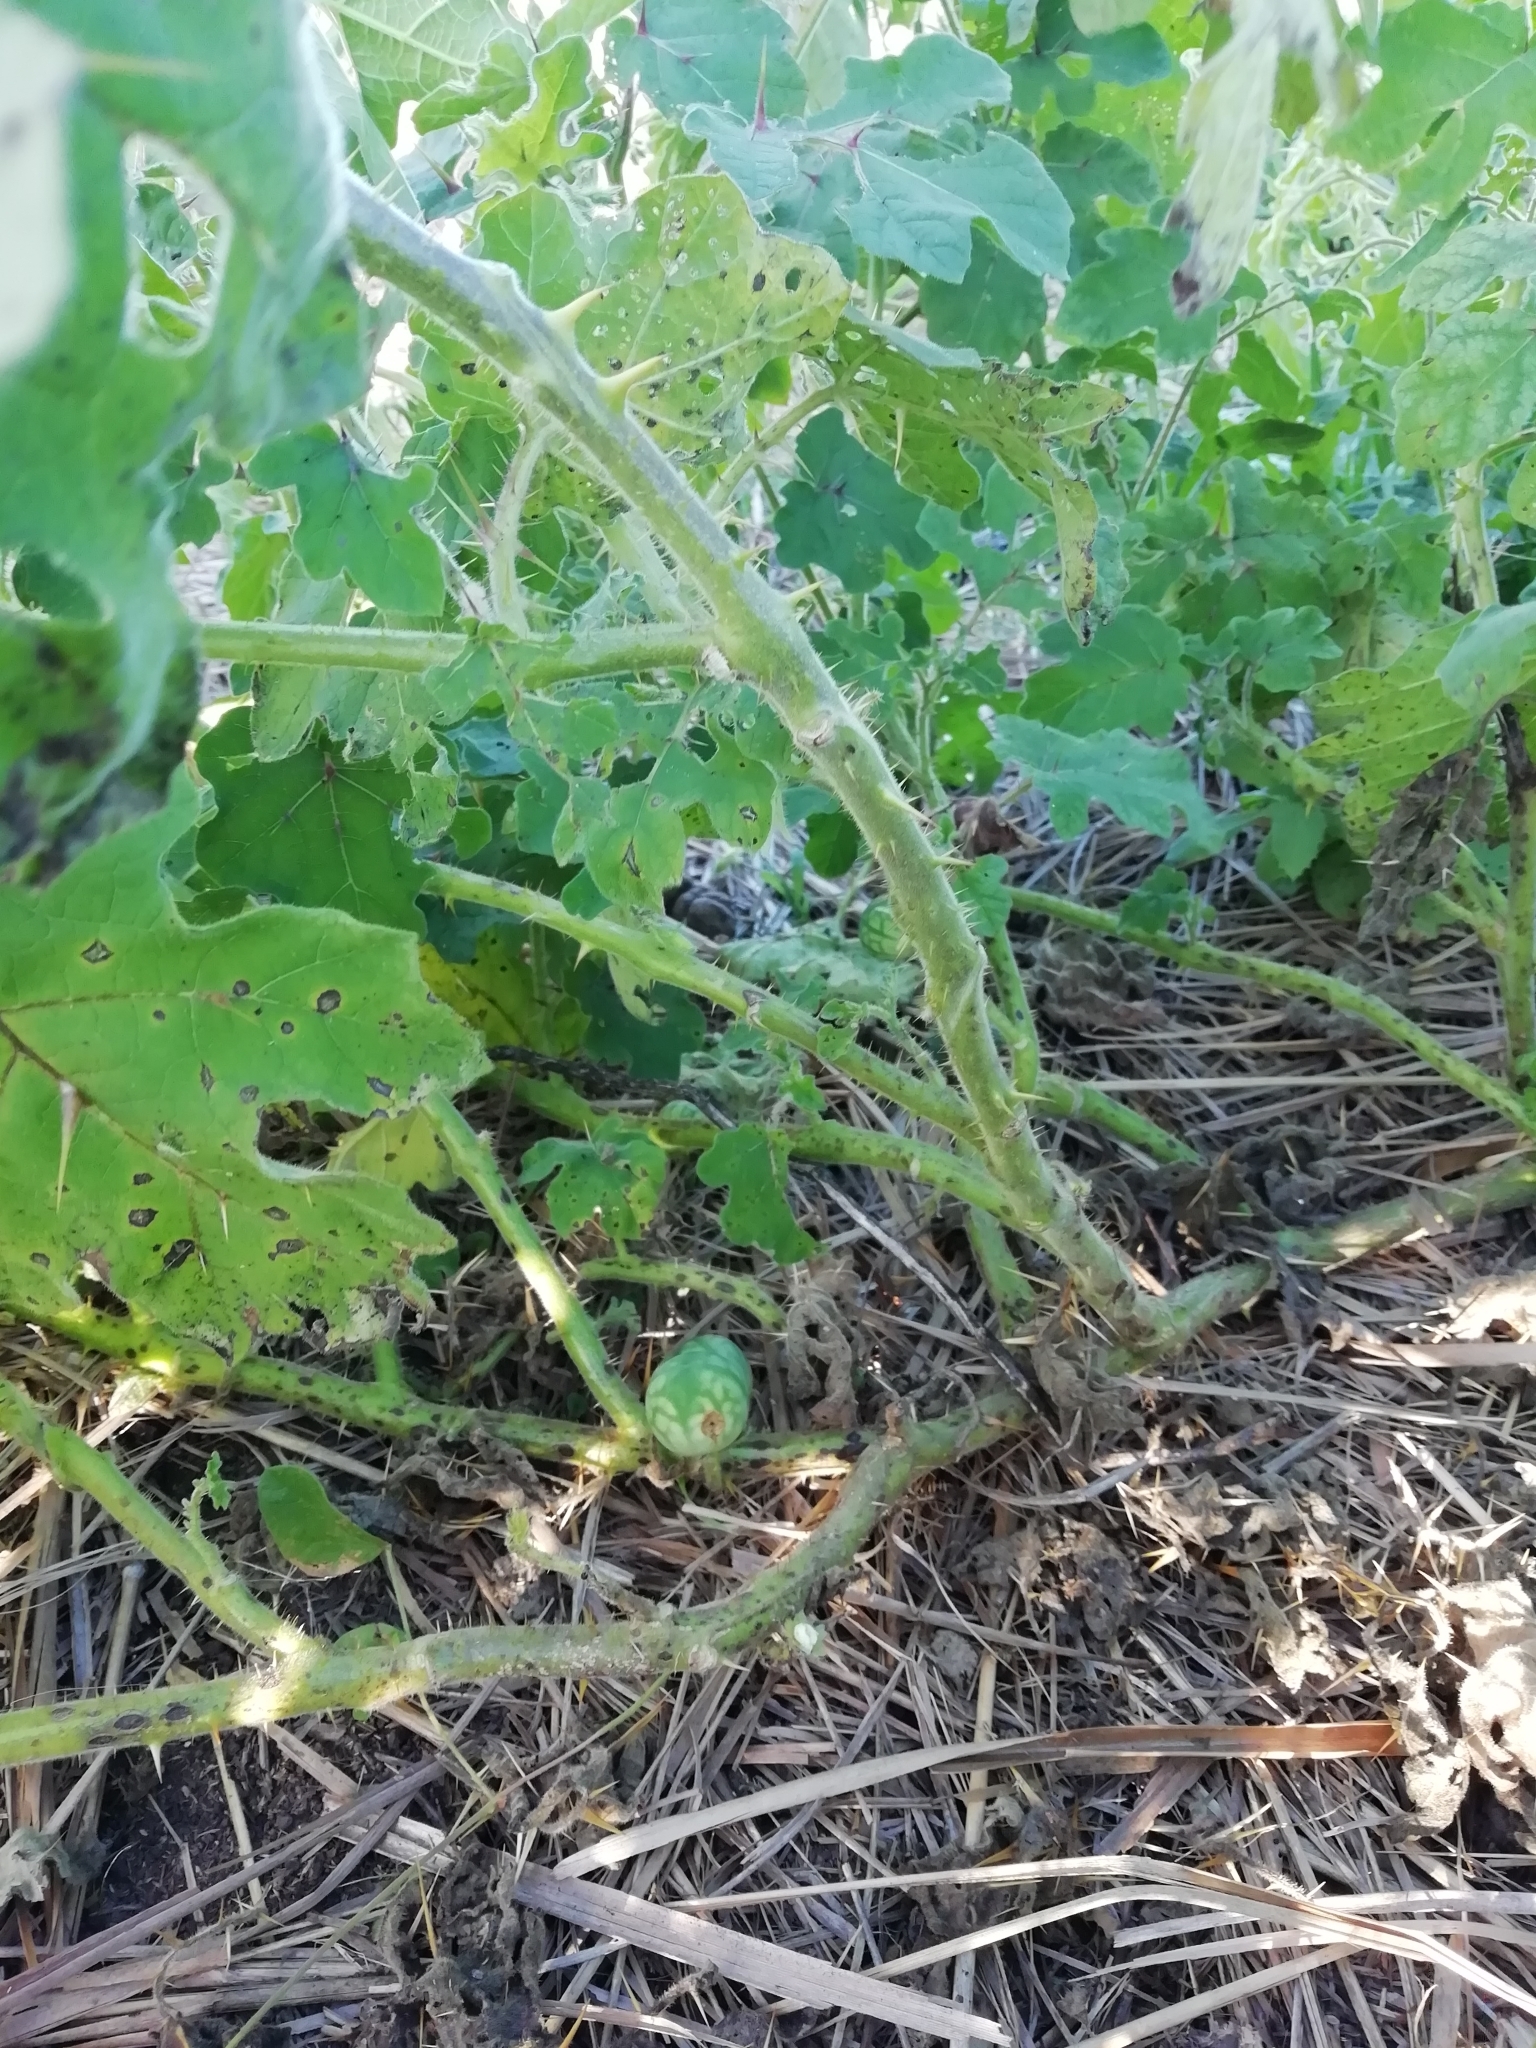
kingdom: Plantae
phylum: Tracheophyta
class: Magnoliopsida
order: Solanales
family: Solanaceae
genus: Solanum
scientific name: Solanum viarum
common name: Tropical soda apple
